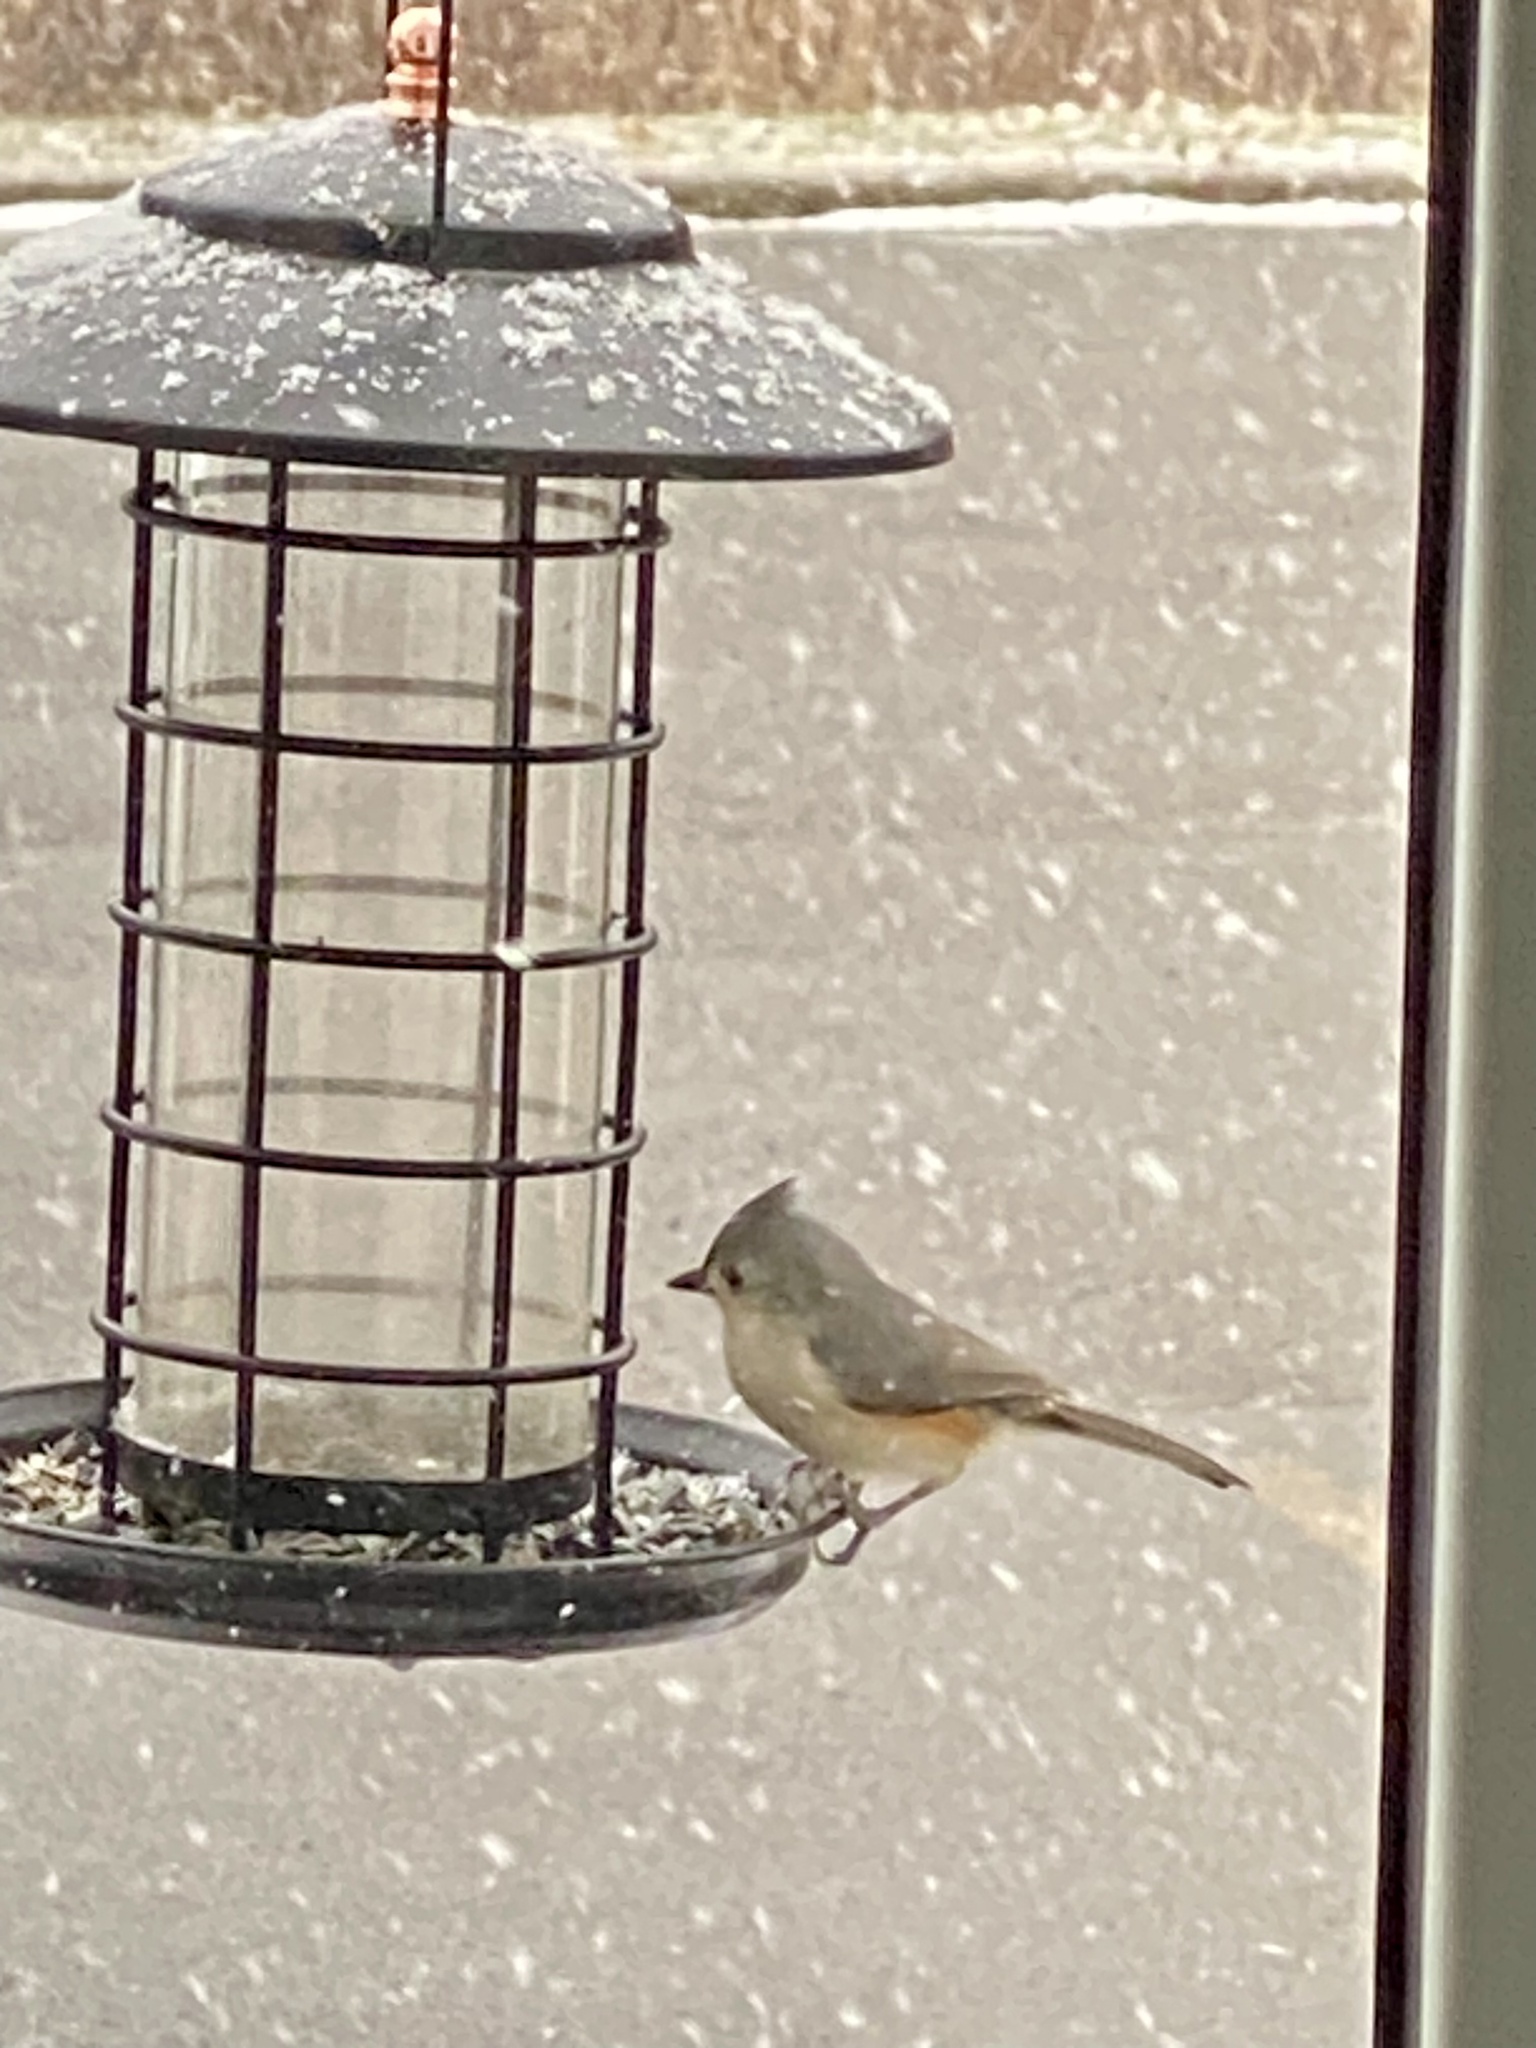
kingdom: Animalia
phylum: Chordata
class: Aves
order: Passeriformes
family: Paridae
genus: Baeolophus
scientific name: Baeolophus bicolor
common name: Tufted titmouse
